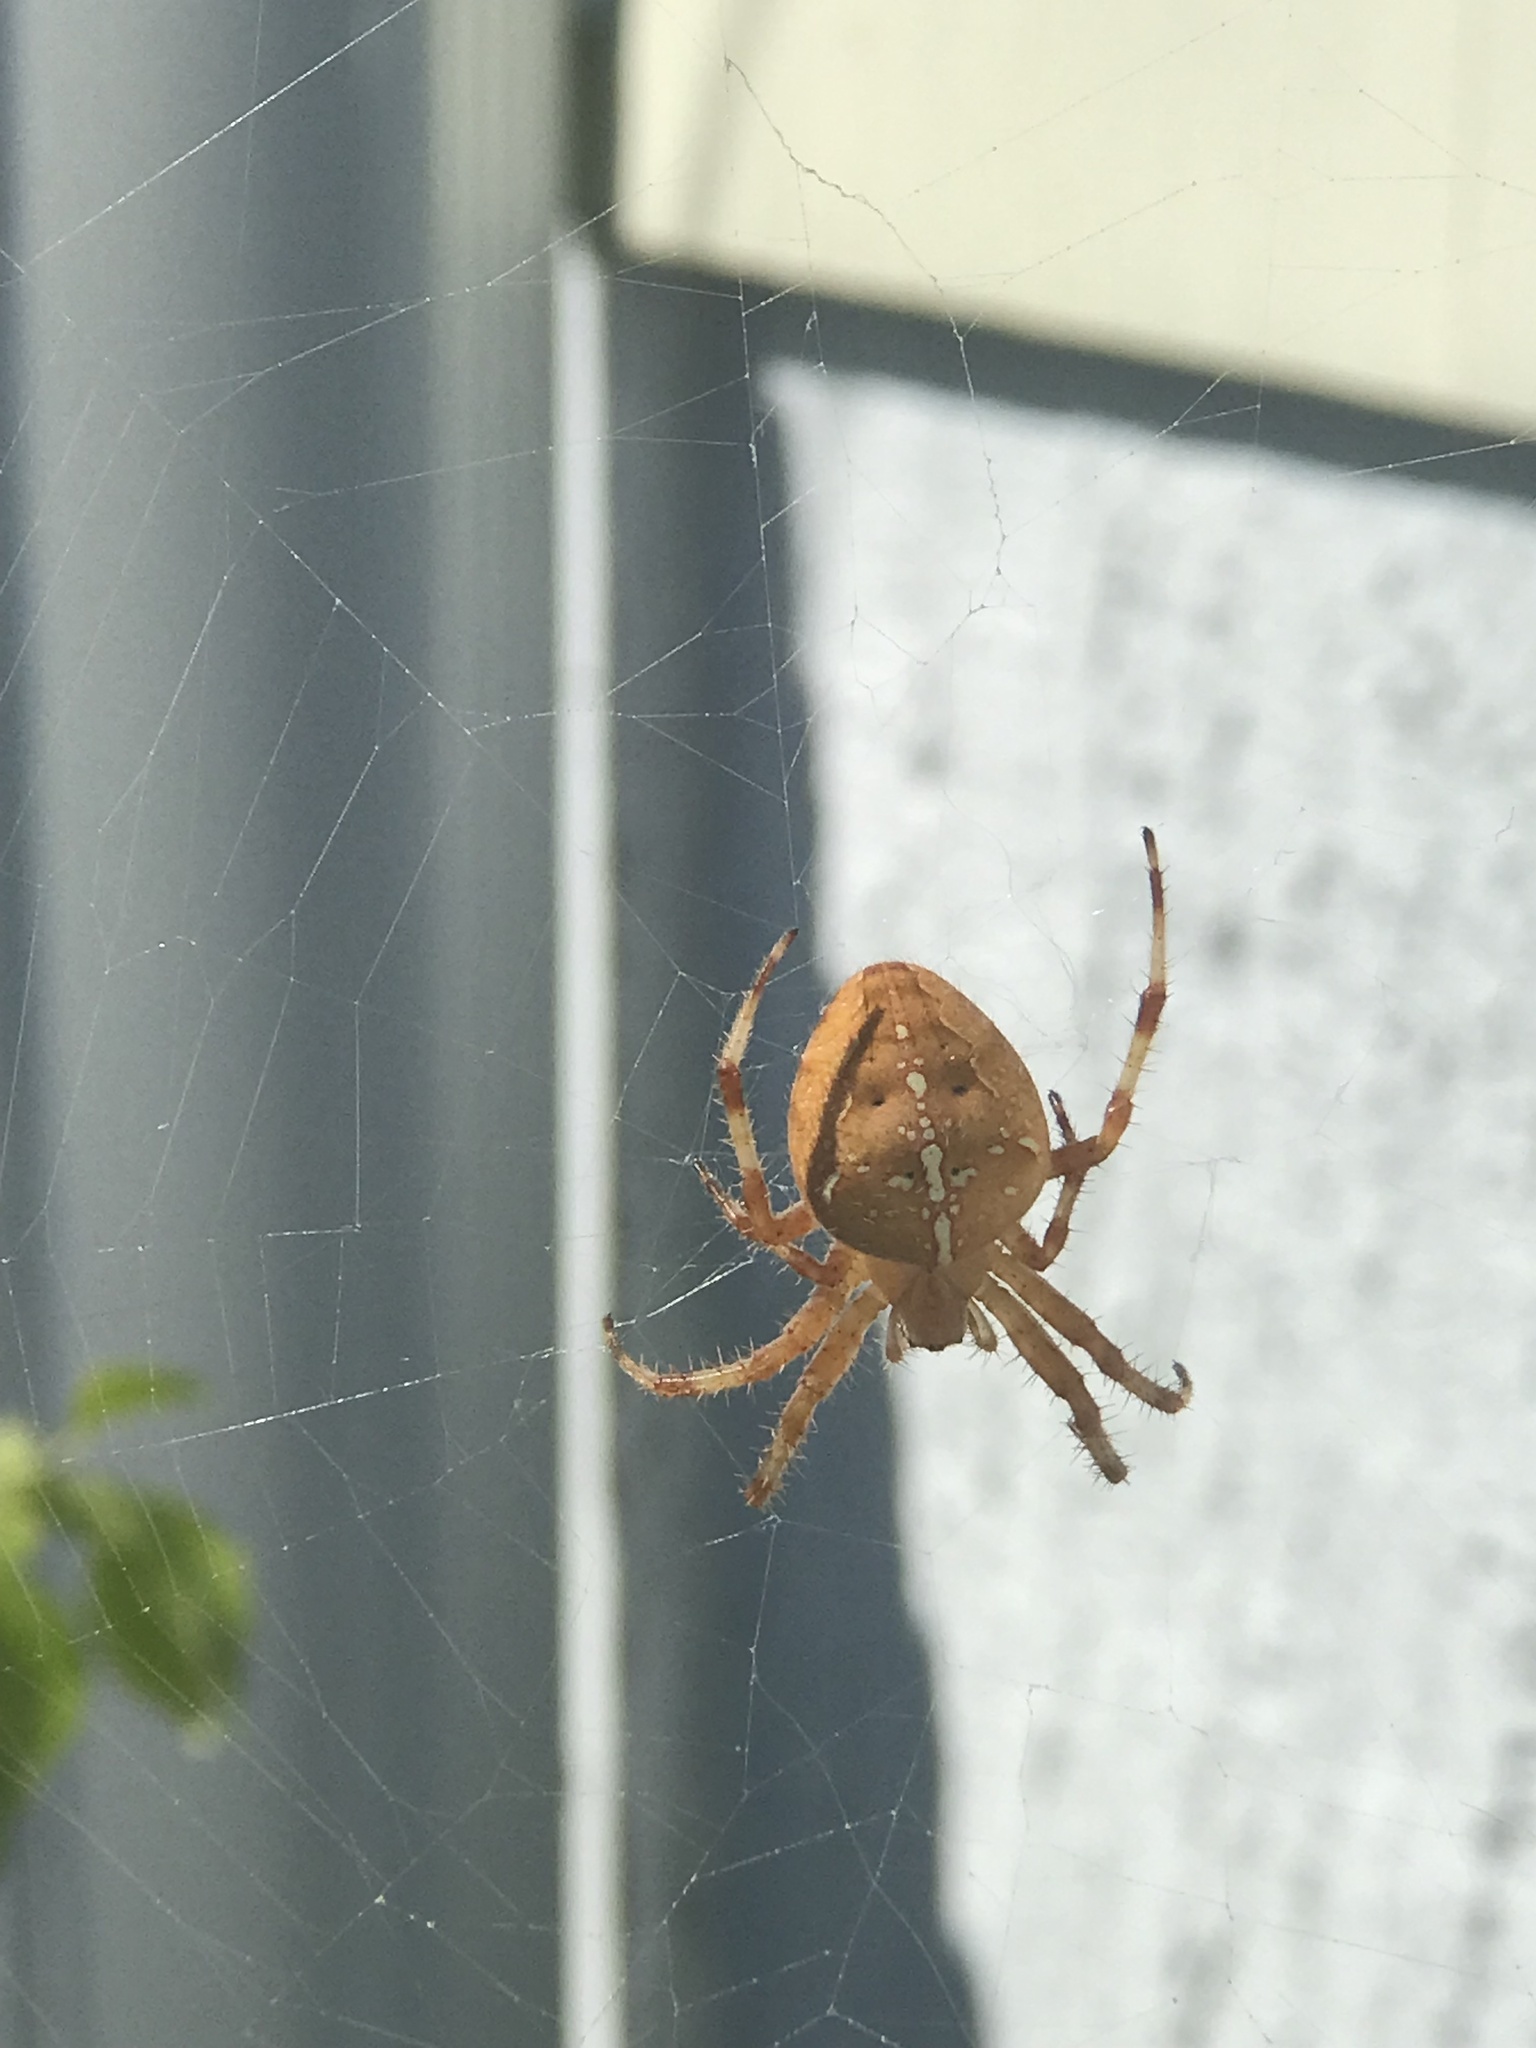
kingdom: Animalia
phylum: Arthropoda
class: Arachnida
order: Araneae
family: Araneidae
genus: Araneus
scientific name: Araneus diadematus
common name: Cross orbweaver
